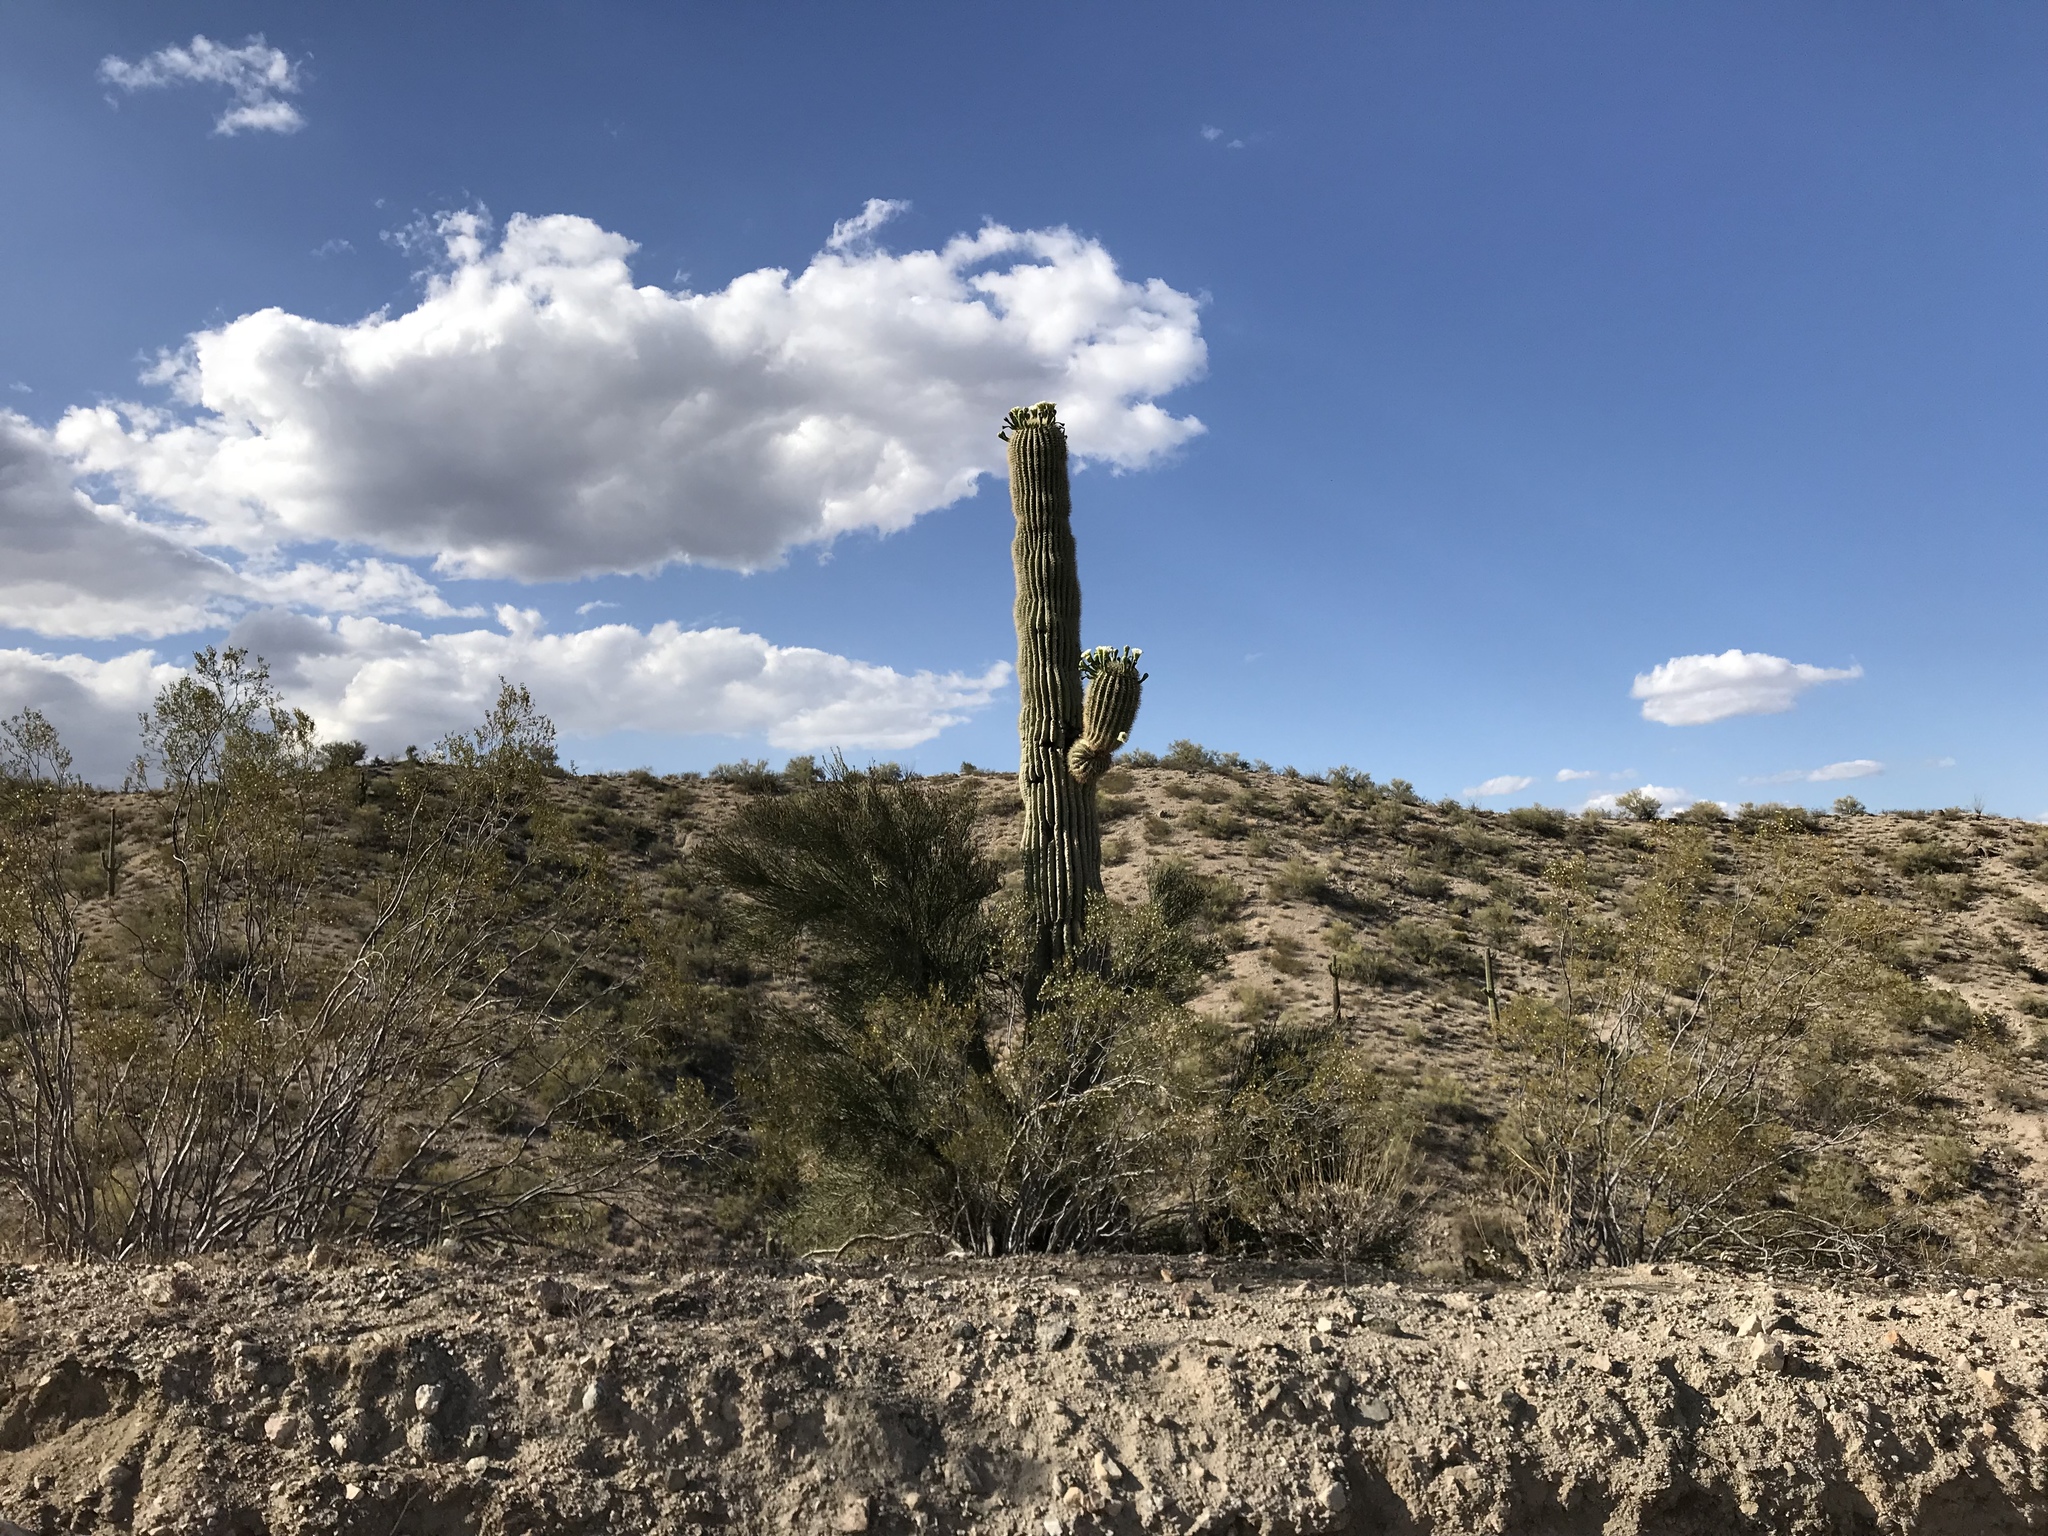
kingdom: Plantae
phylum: Tracheophyta
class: Magnoliopsida
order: Caryophyllales
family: Cactaceae
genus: Carnegiea
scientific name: Carnegiea gigantea
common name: Saguaro
